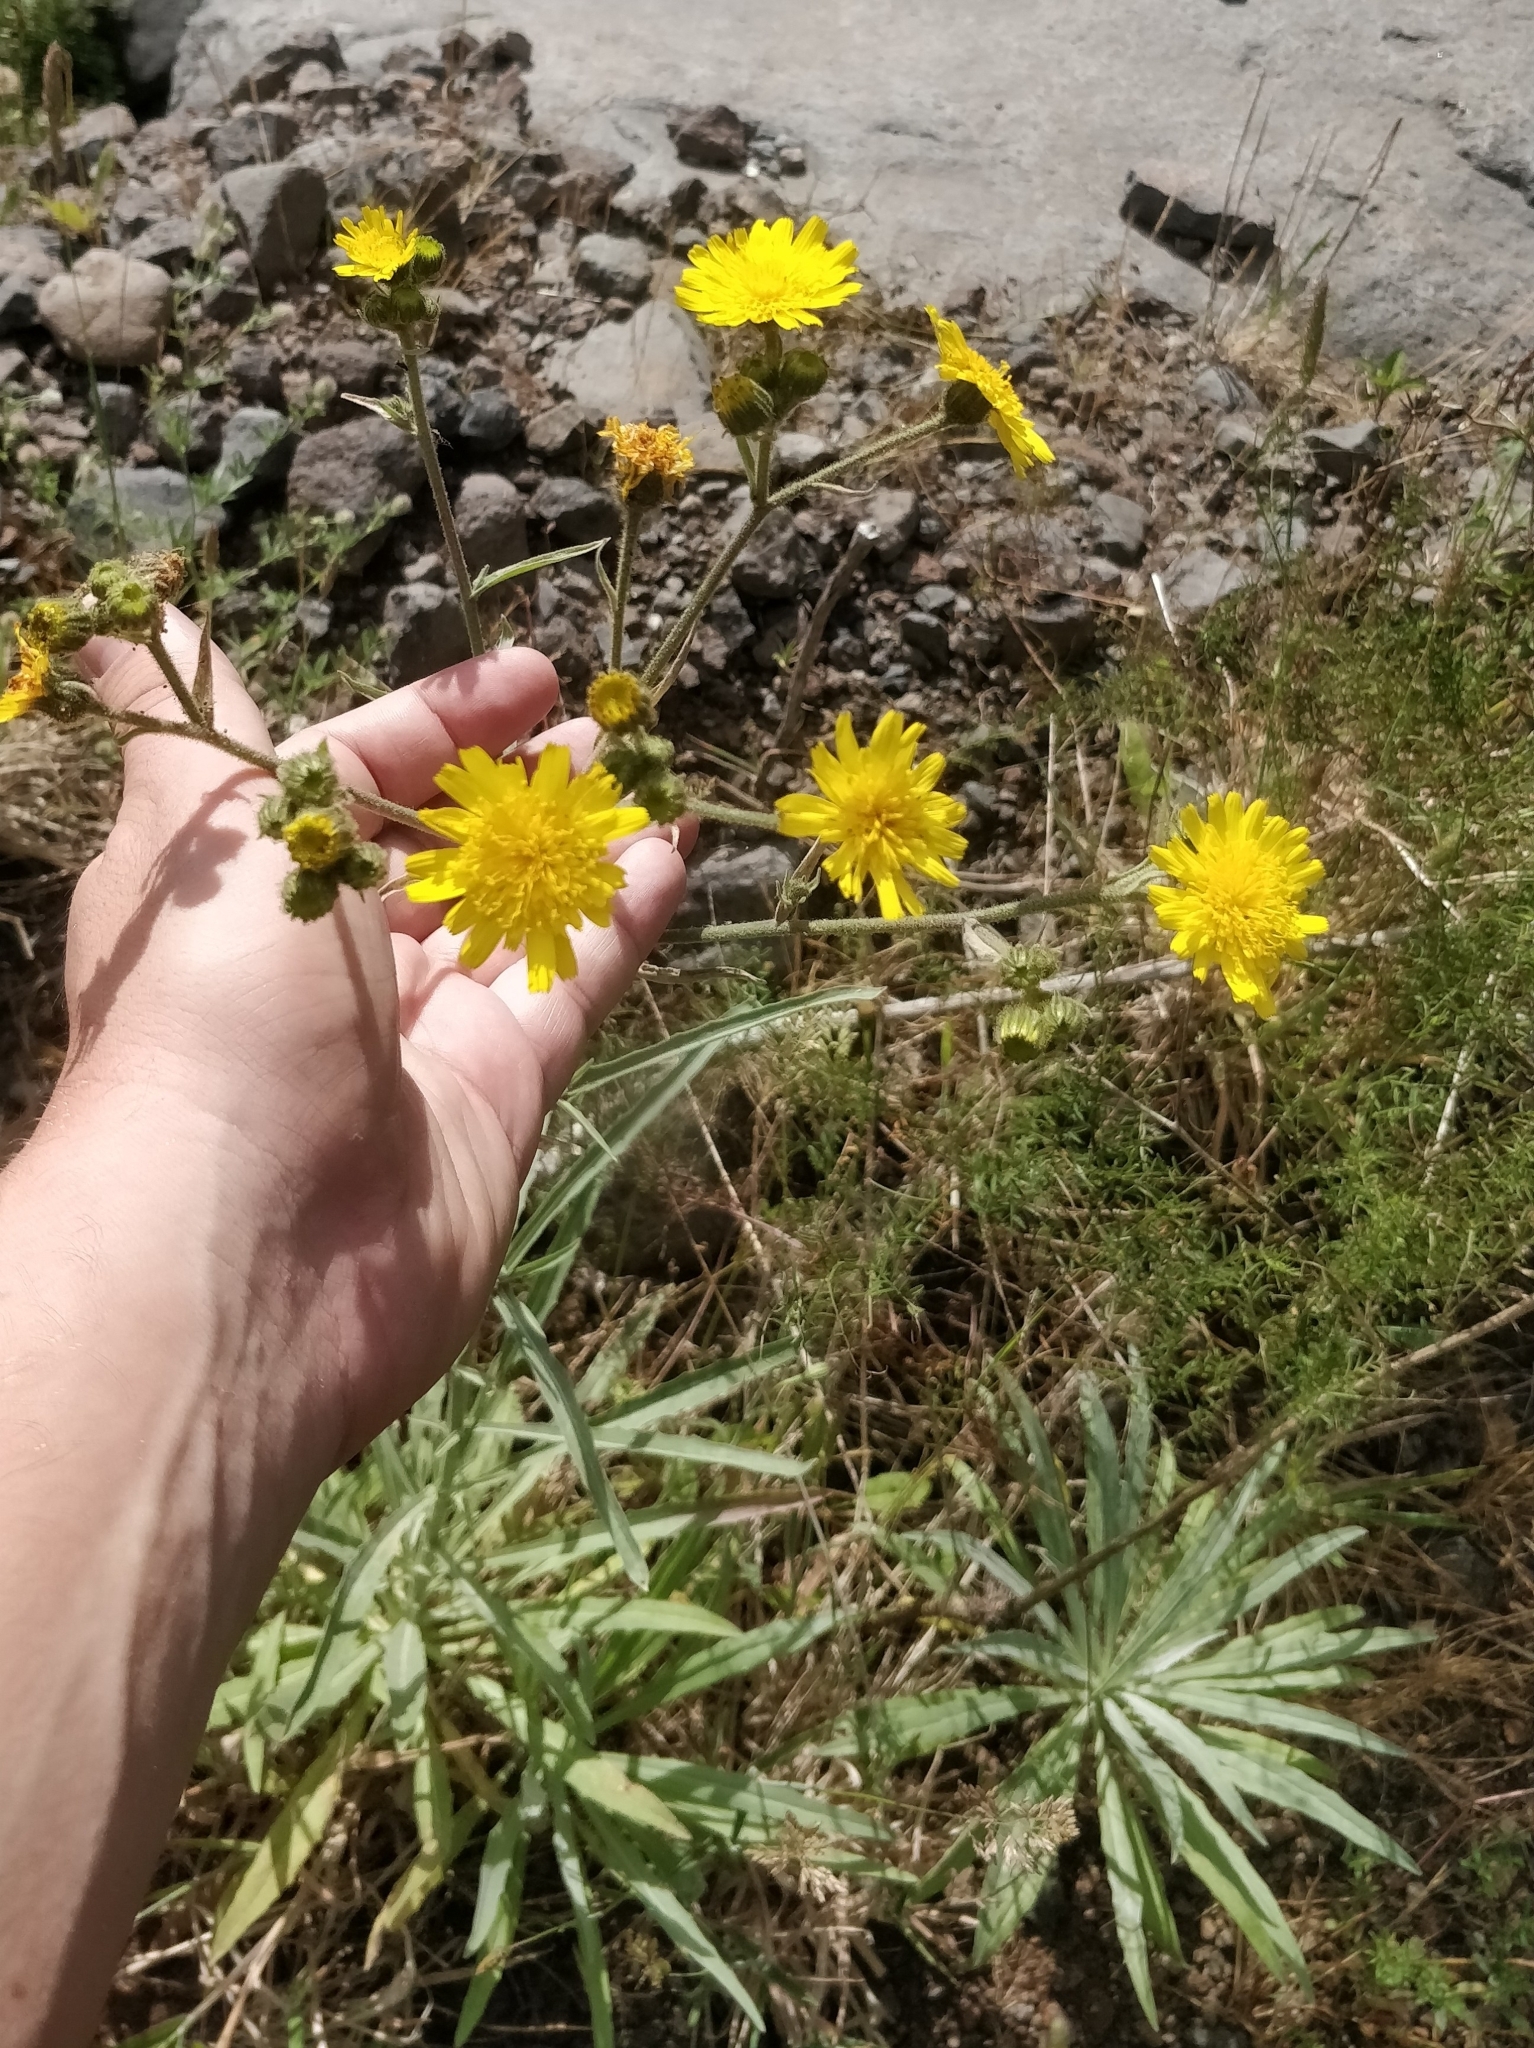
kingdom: Plantae
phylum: Tracheophyta
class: Magnoliopsida
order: Asterales
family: Asteraceae
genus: Andryala
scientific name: Andryala glandulosa
